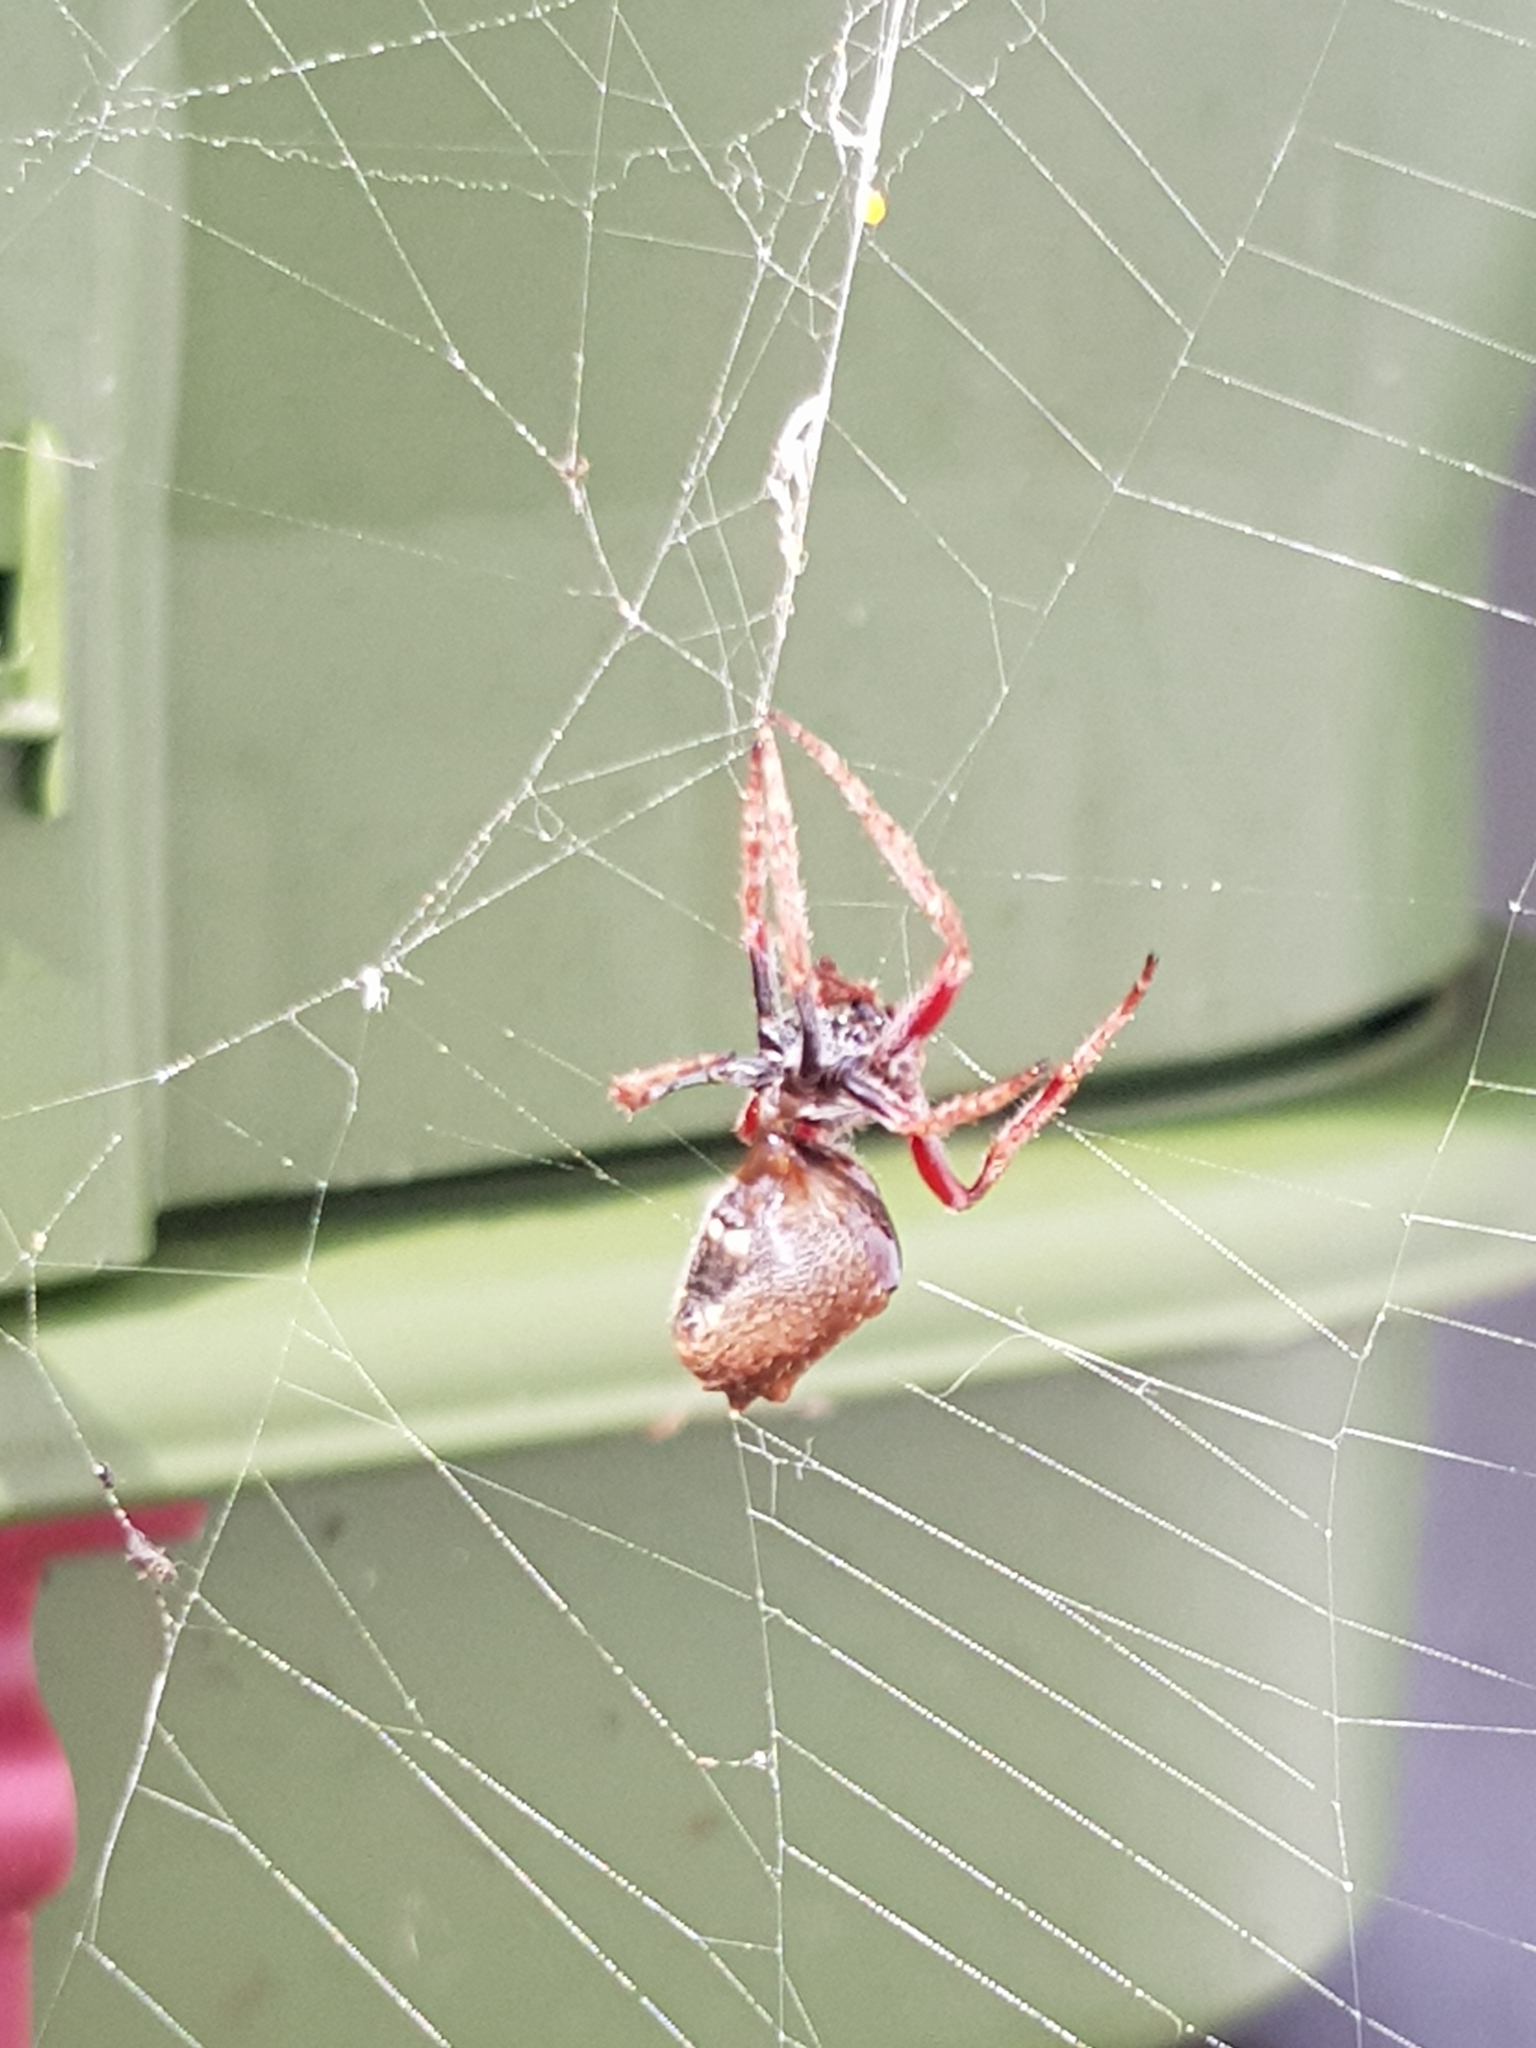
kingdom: Animalia
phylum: Arthropoda
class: Arachnida
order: Araneae
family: Araneidae
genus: Eriophora
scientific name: Eriophora pustulosa
